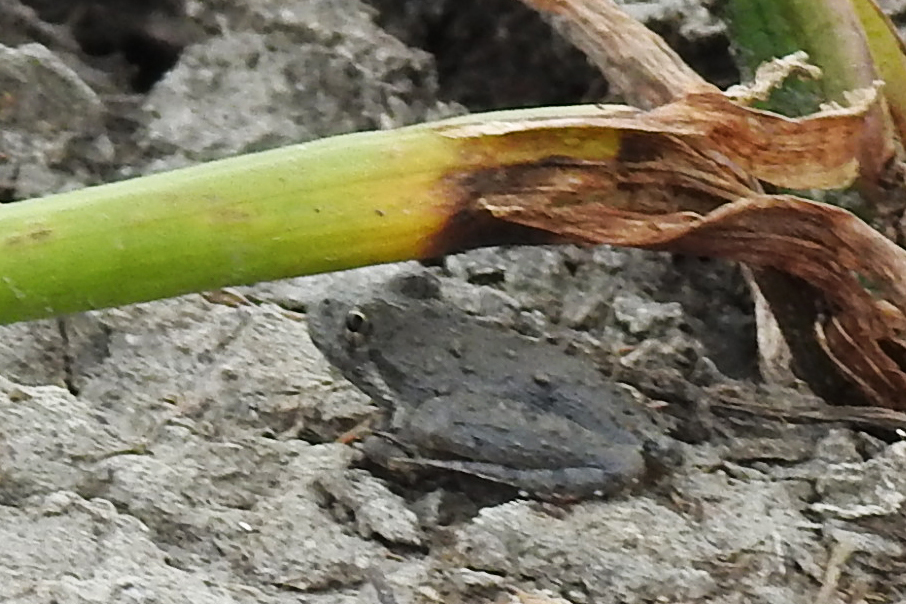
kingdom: Animalia
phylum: Chordata
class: Amphibia
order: Anura
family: Hylidae
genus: Acris
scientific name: Acris blanchardi
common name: Blanchard's cricket frog
